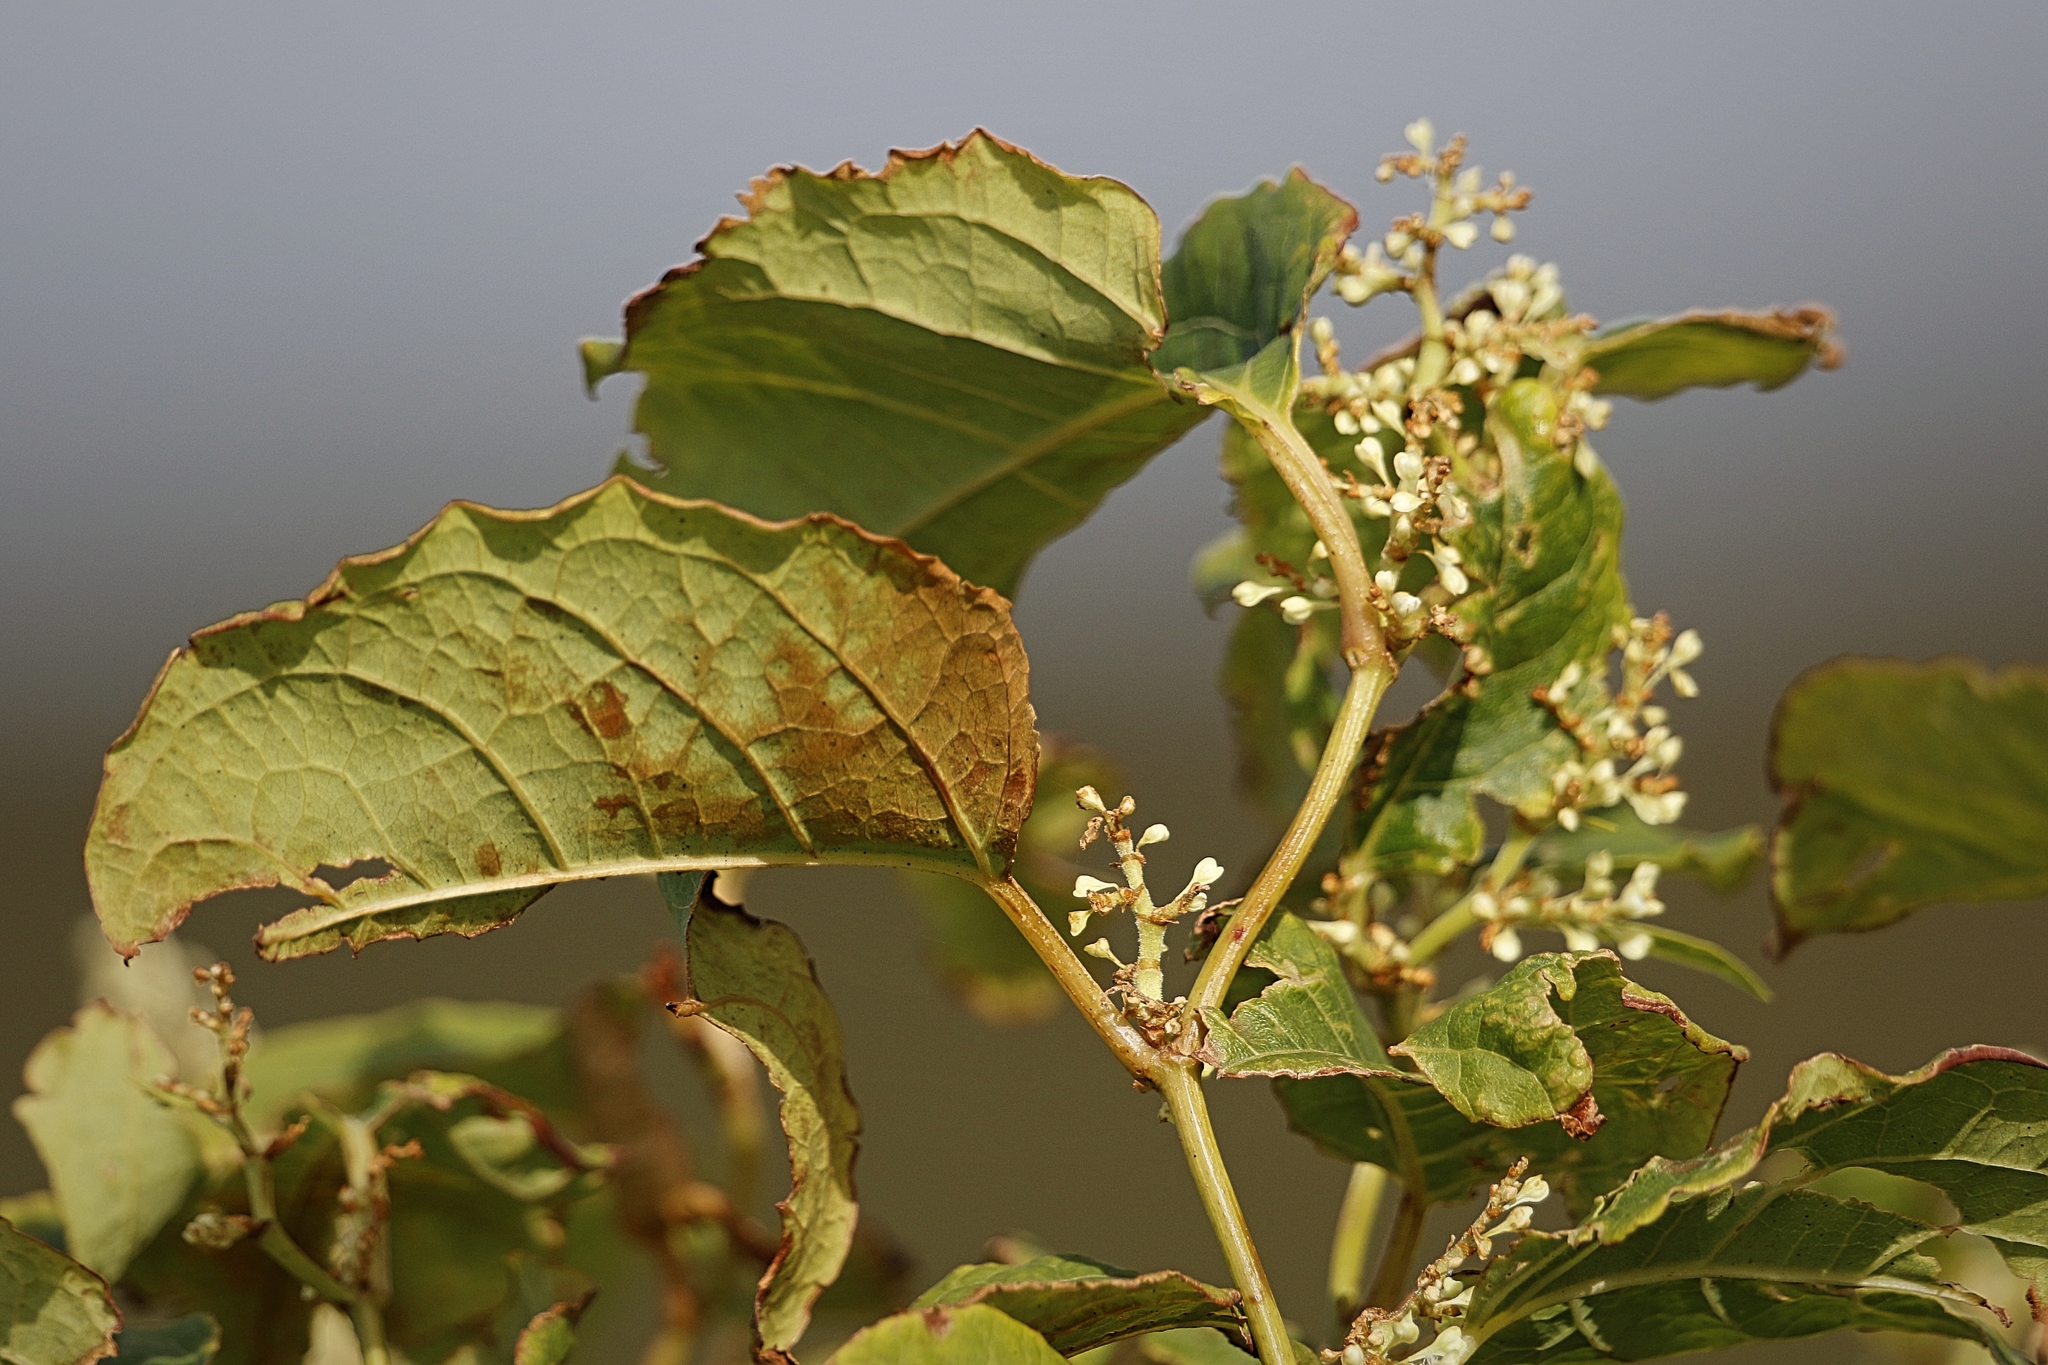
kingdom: Plantae
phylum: Tracheophyta
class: Magnoliopsida
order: Caryophyllales
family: Polygonaceae
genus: Reynoutria
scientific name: Reynoutria japonica
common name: Japanese knotweed
